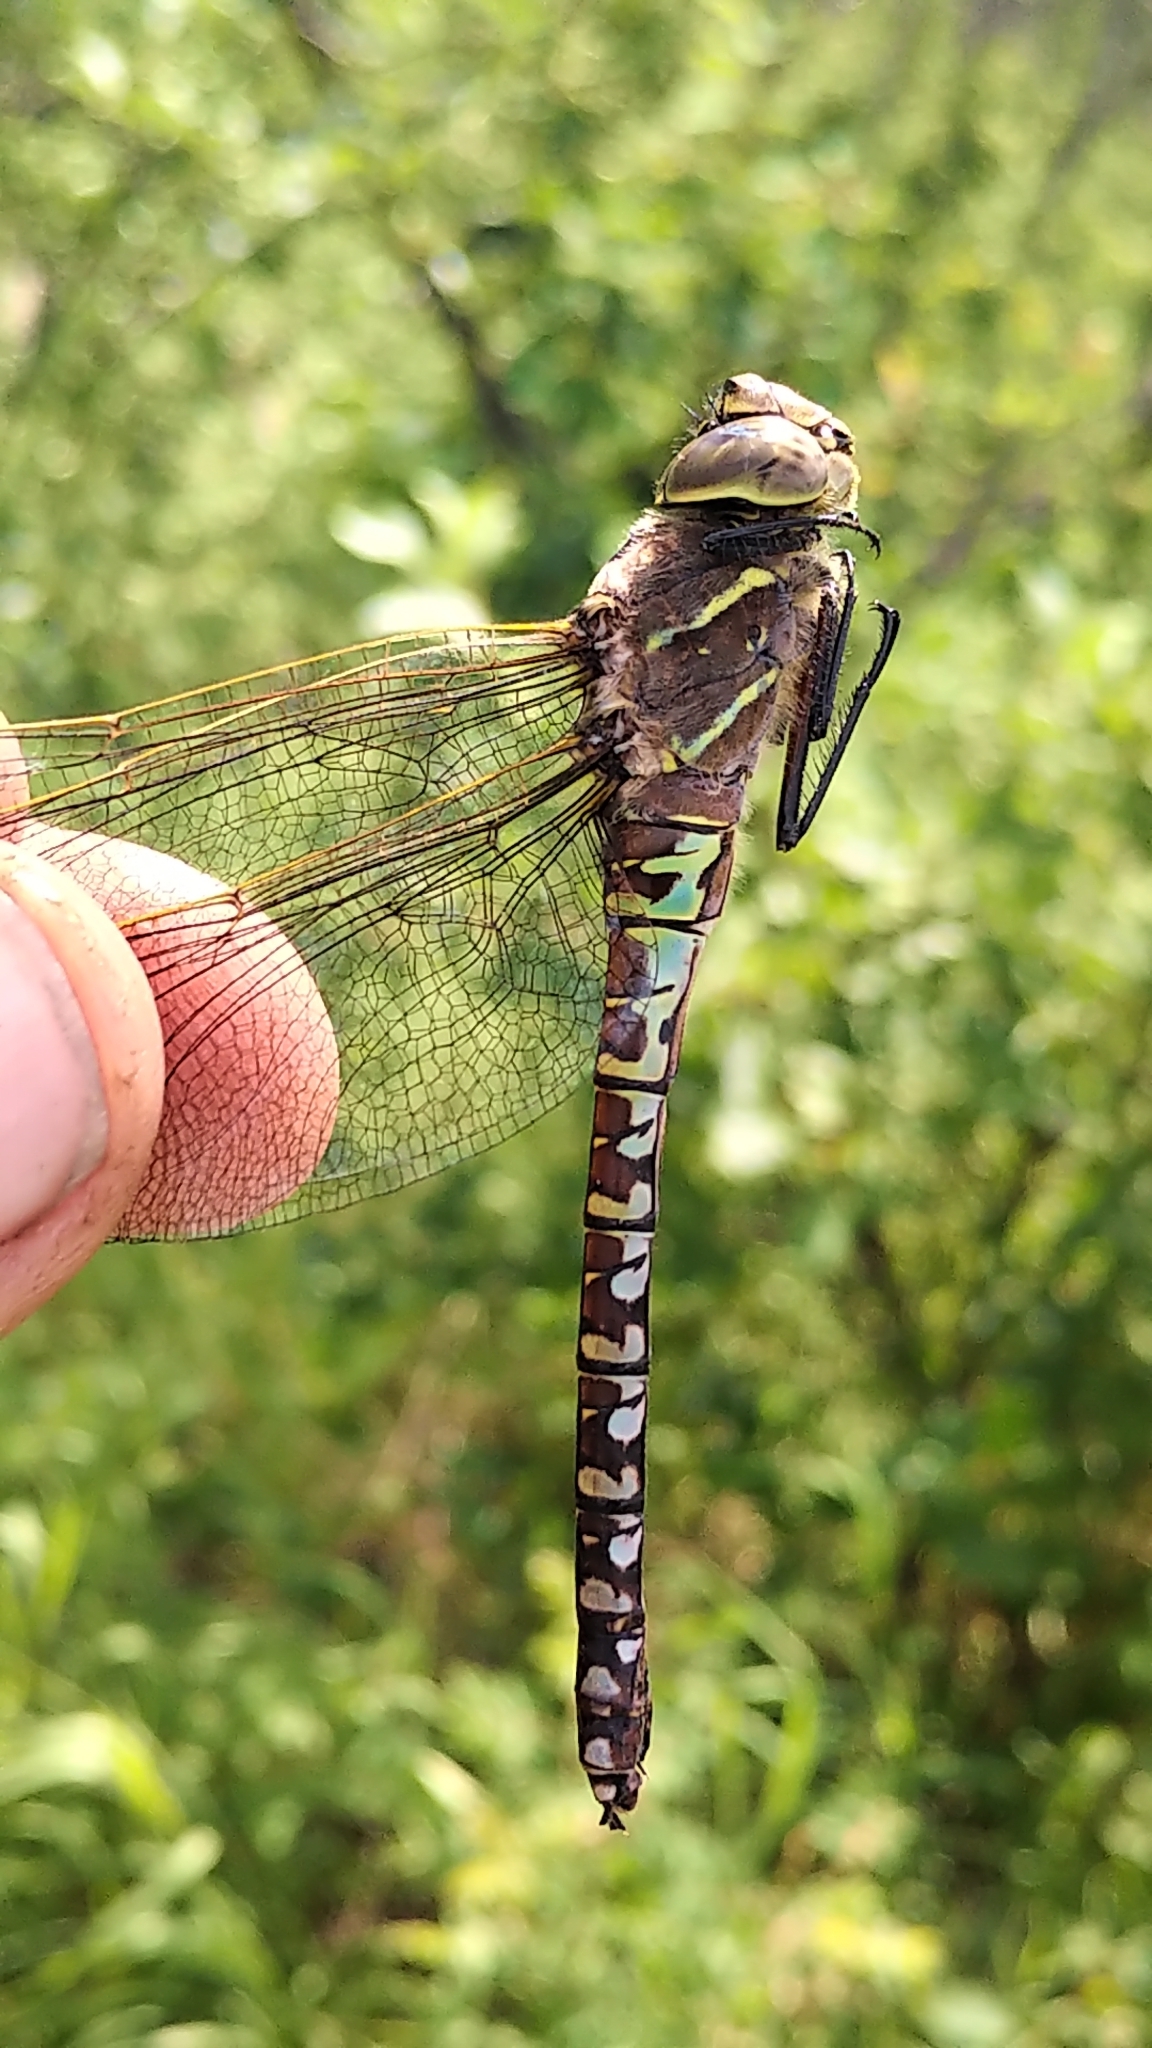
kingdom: Animalia
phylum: Arthropoda
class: Insecta
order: Odonata
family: Aeshnidae
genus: Aeshna
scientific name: Aeshna interrupta
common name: Variable darner
